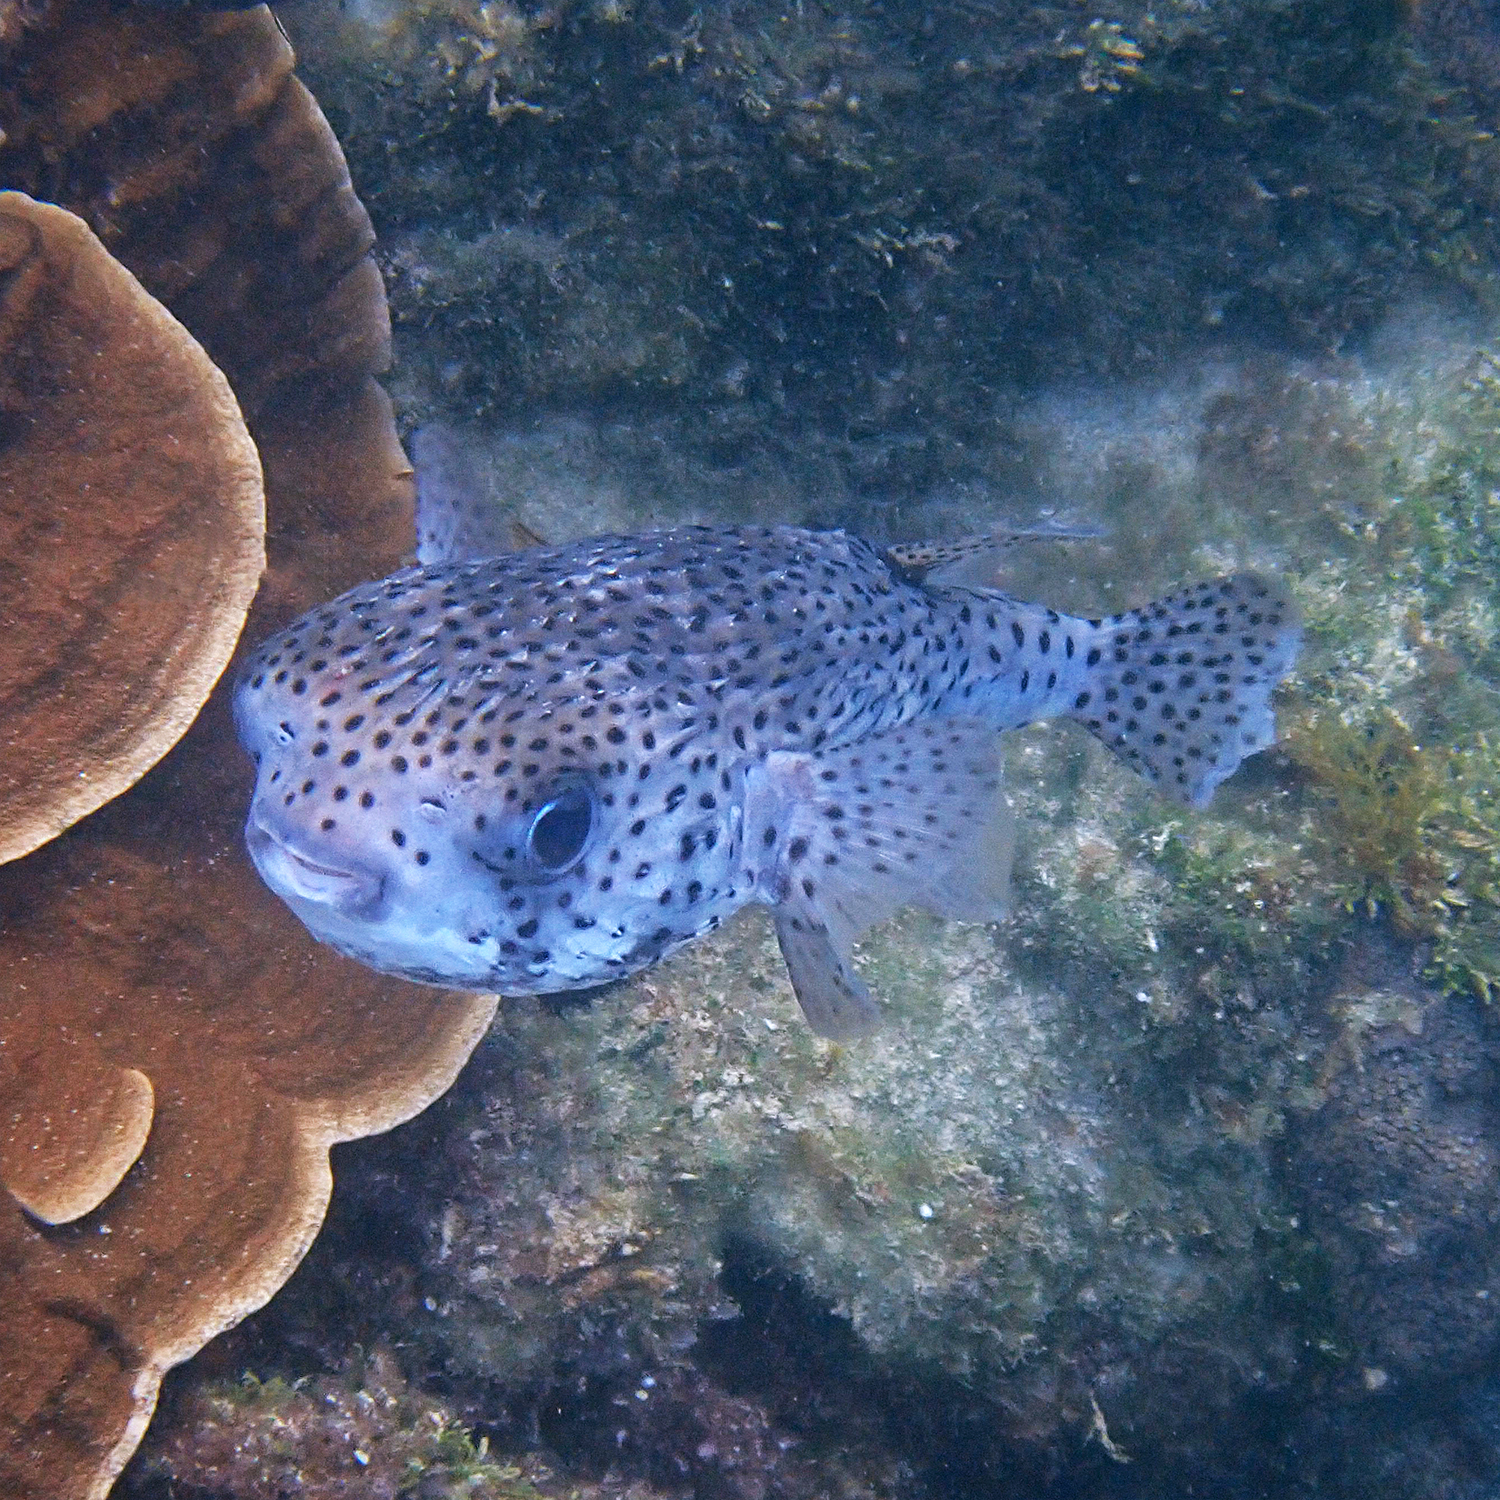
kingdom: Animalia
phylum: Chordata
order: Tetraodontiformes
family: Diodontidae
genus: Diodon
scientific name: Diodon hystrix
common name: Giant porcupinefish
